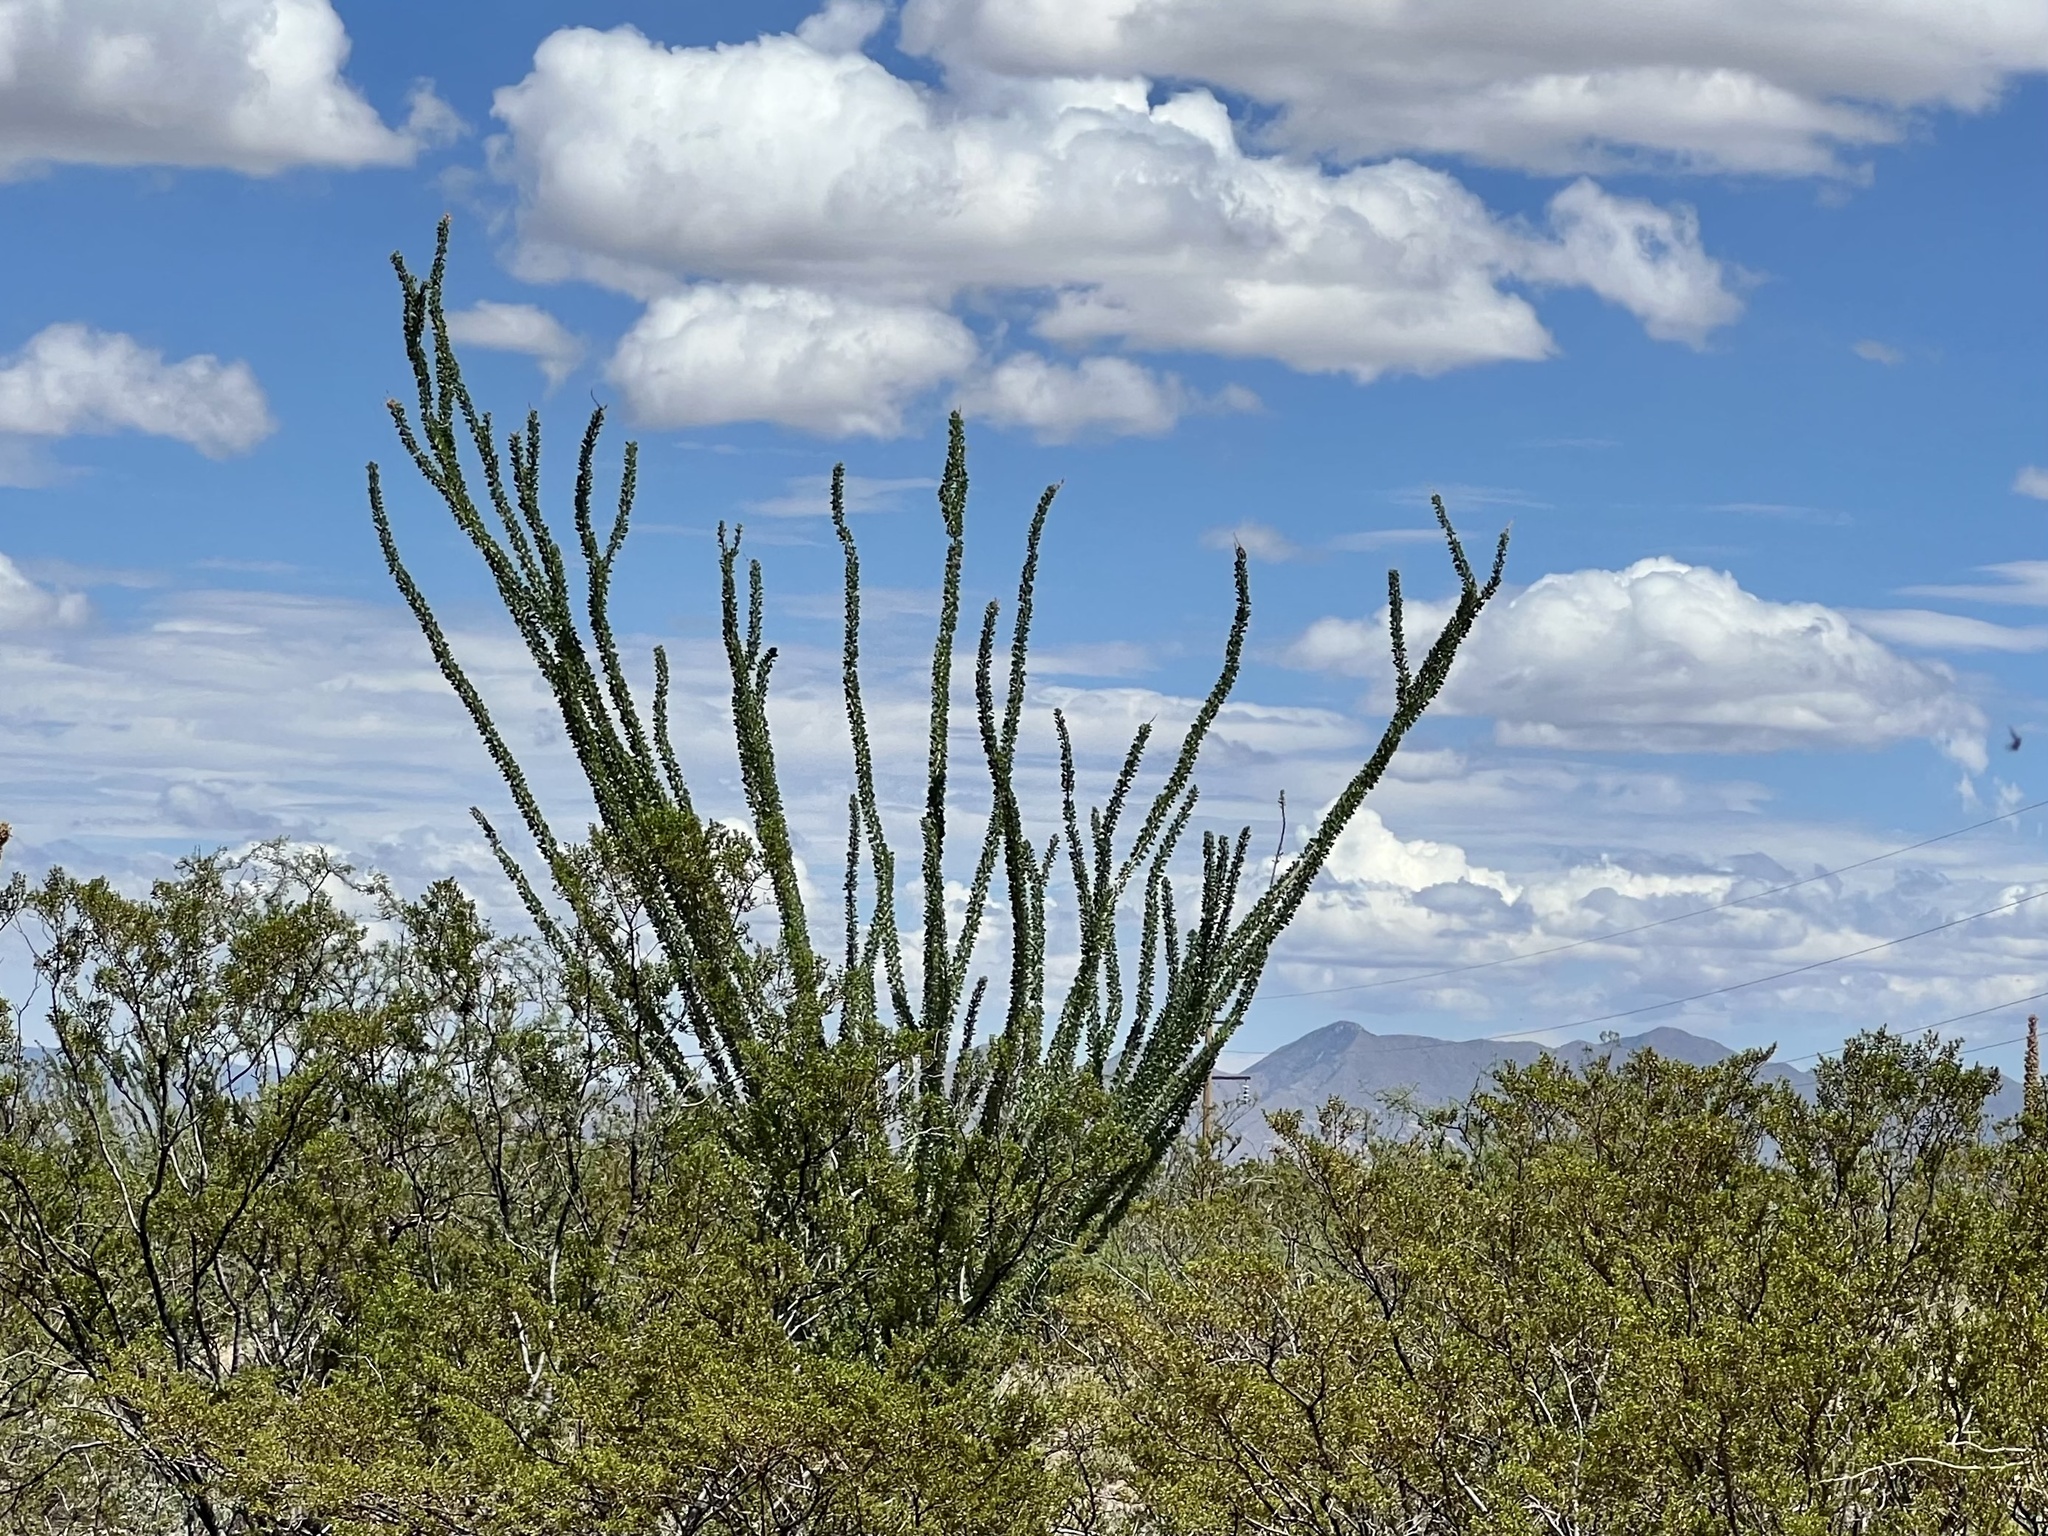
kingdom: Plantae
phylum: Tracheophyta
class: Magnoliopsida
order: Ericales
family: Fouquieriaceae
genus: Fouquieria
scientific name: Fouquieria splendens
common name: Vine-cactus
